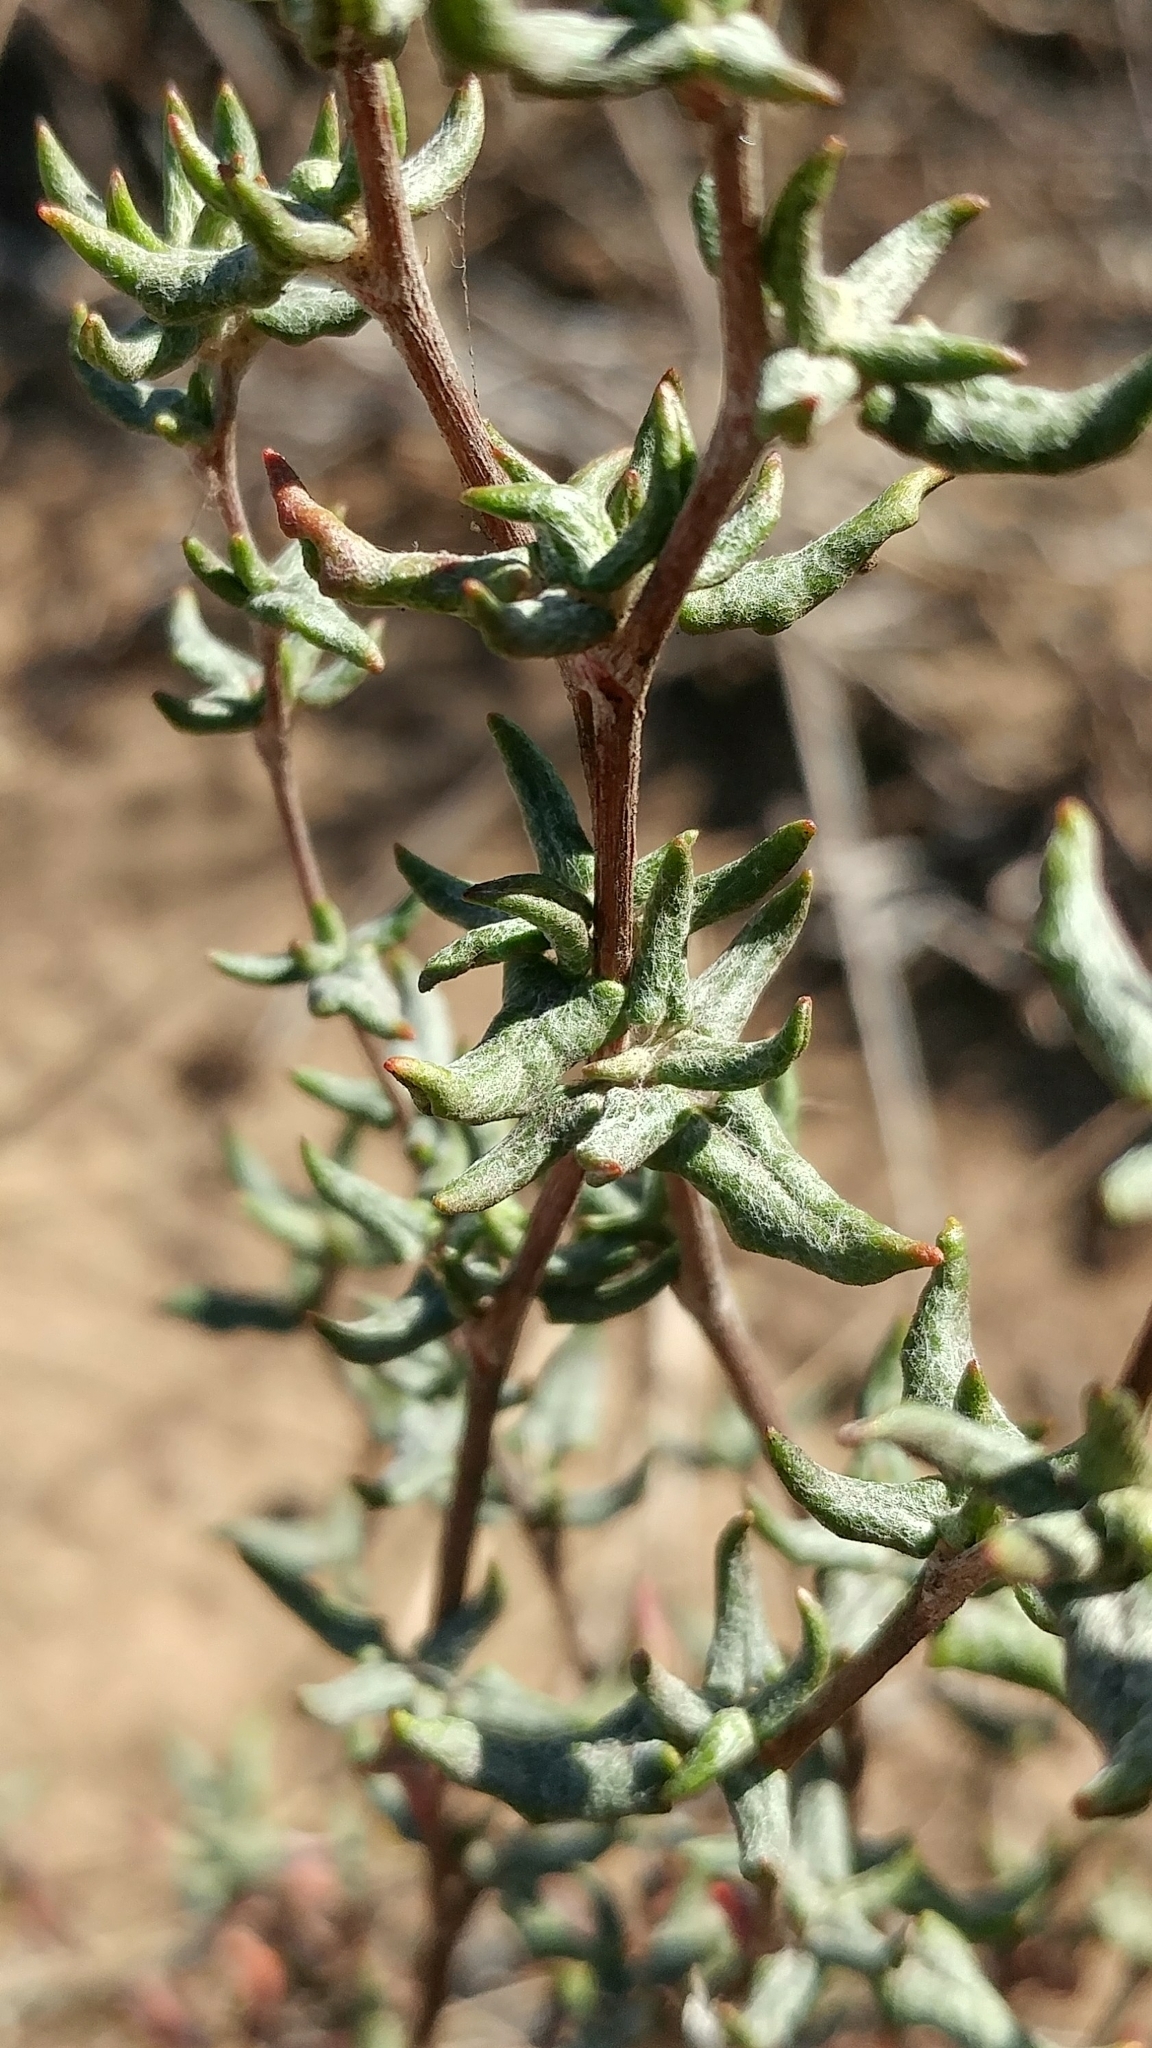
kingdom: Plantae
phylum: Tracheophyta
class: Magnoliopsida
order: Caryophyllales
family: Polygonaceae
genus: Eriogonum
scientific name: Eriogonum parvifolium
